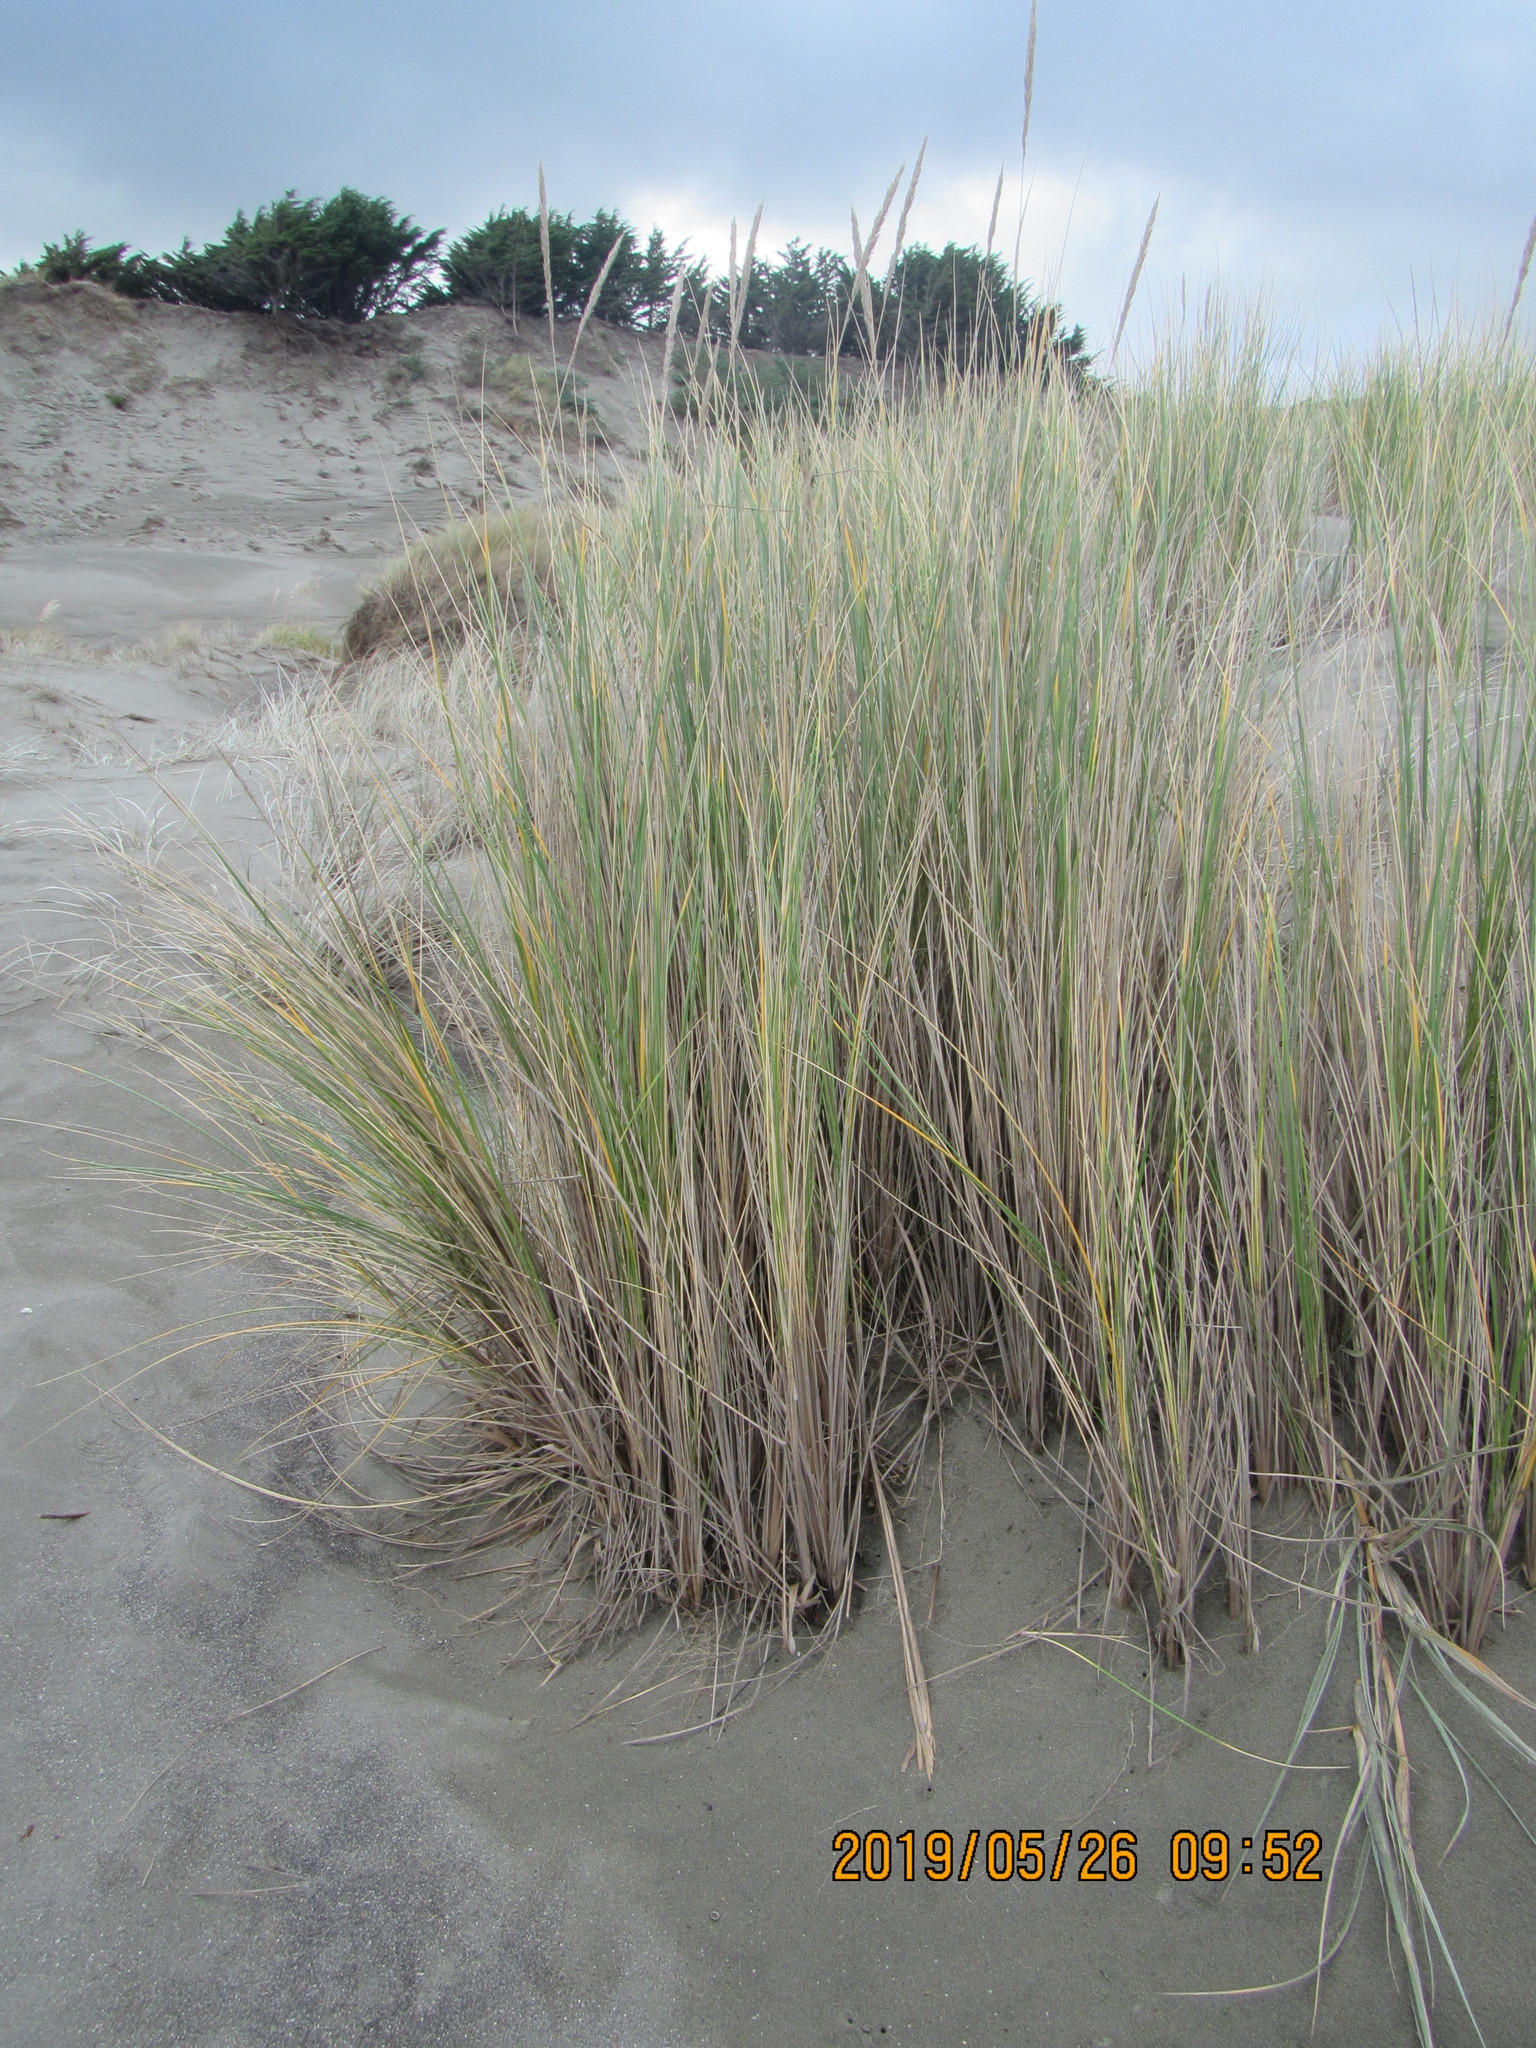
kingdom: Plantae
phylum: Tracheophyta
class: Liliopsida
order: Poales
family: Poaceae
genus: Calamagrostis
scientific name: Calamagrostis arenaria
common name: European beachgrass
